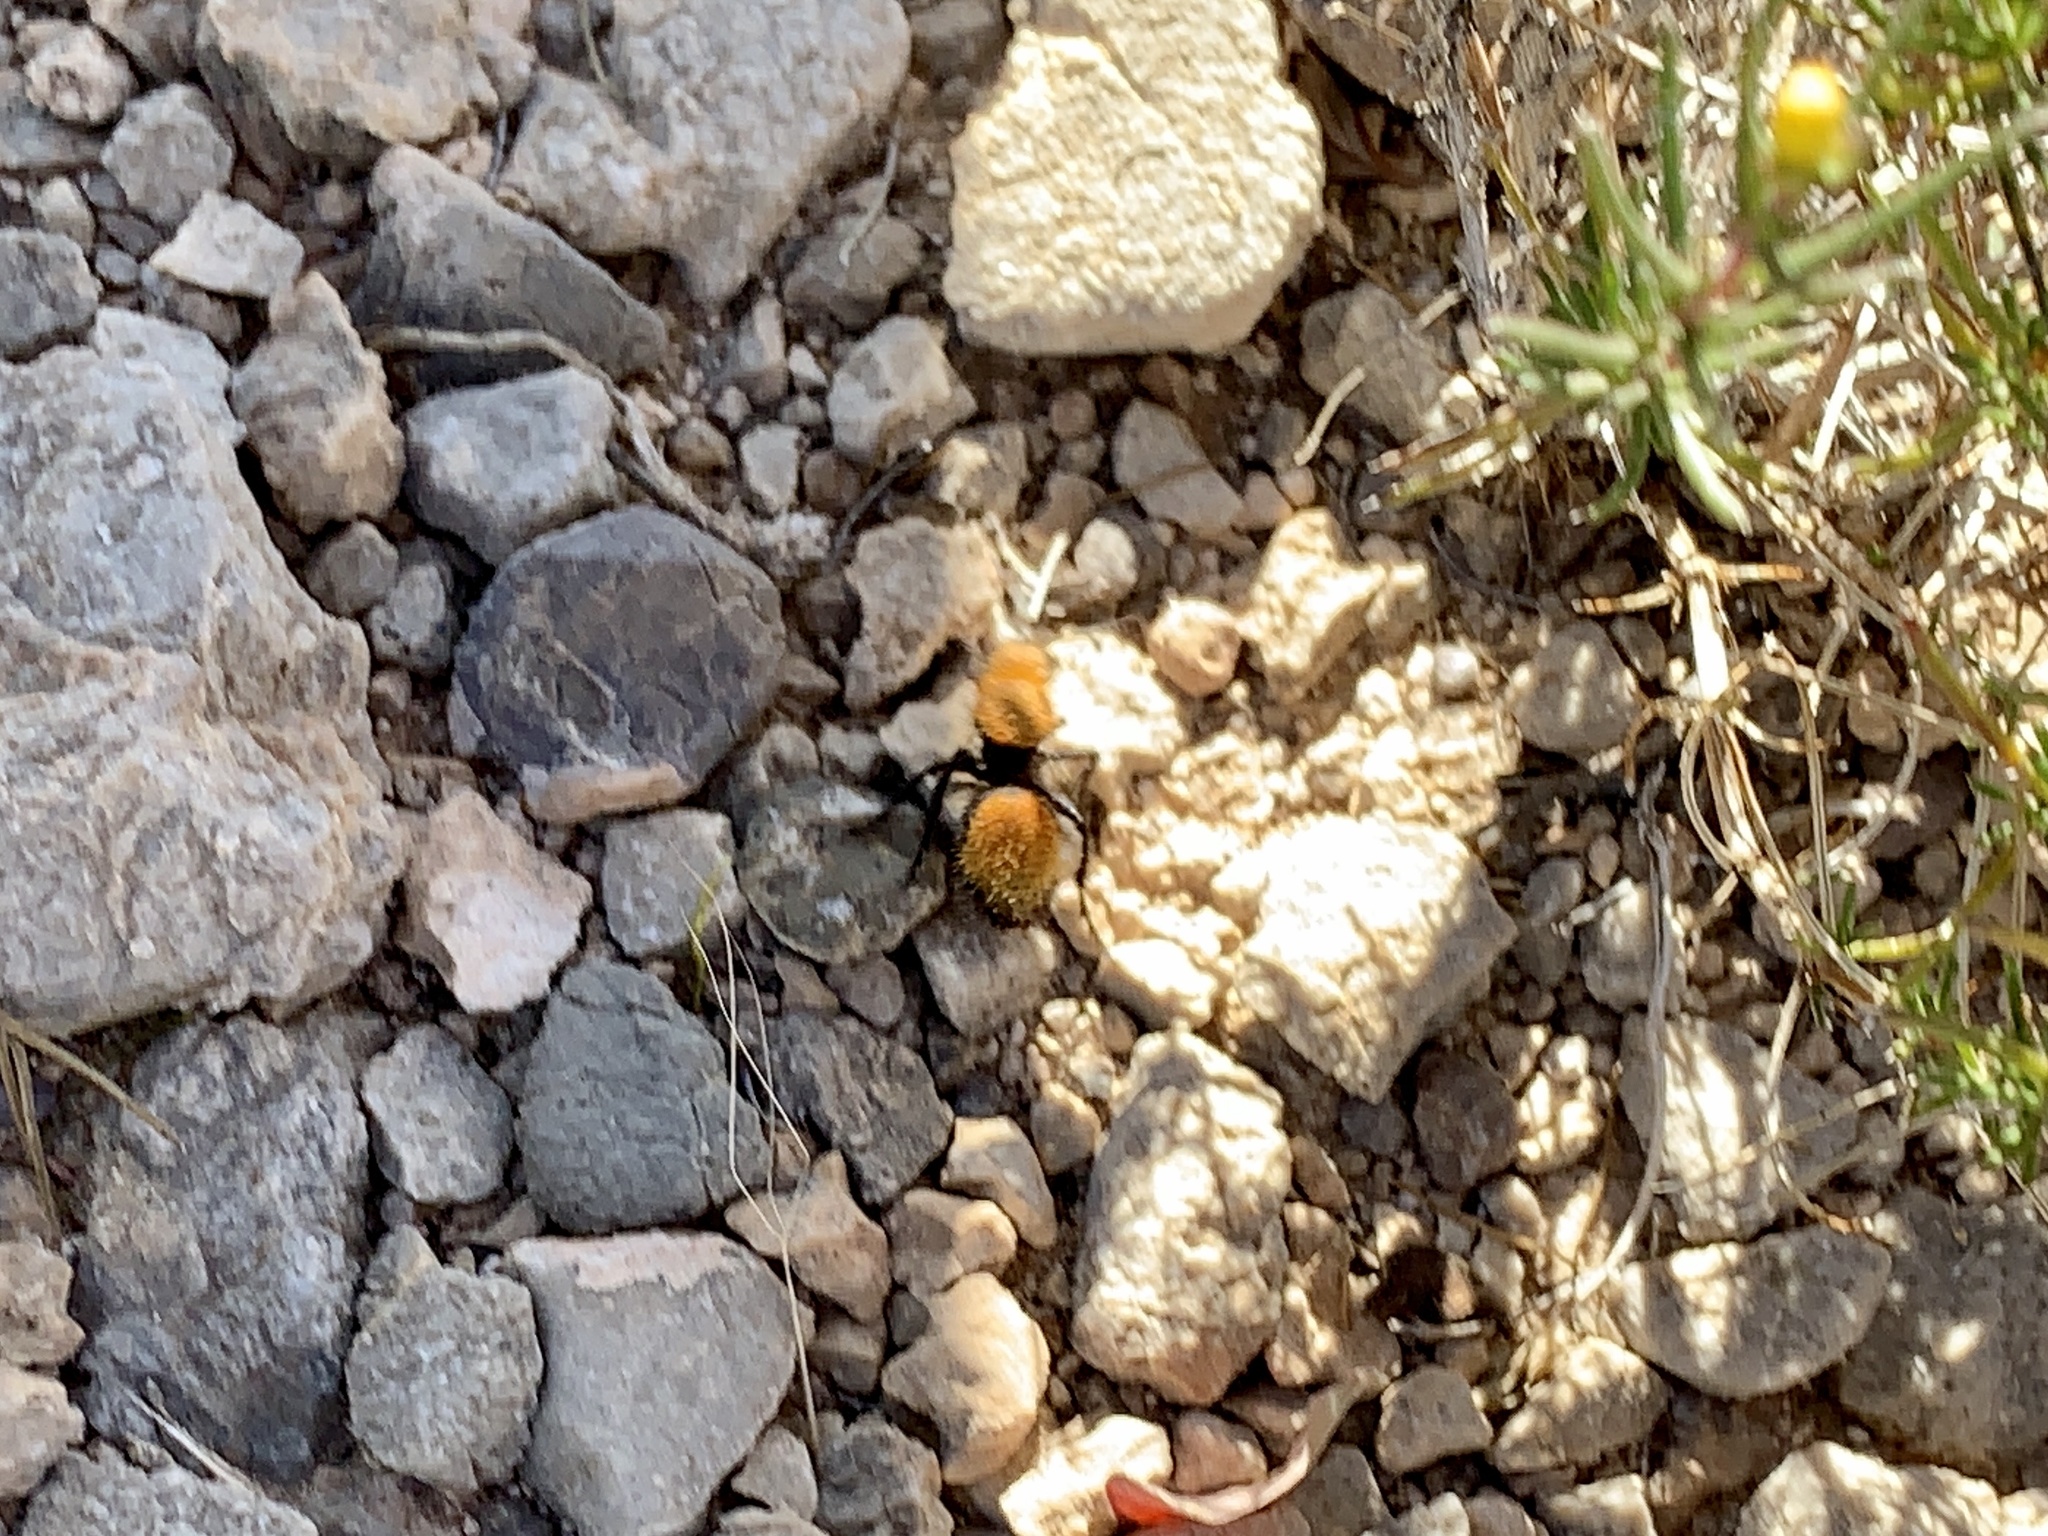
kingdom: Animalia
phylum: Arthropoda
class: Insecta
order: Hymenoptera
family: Mutillidae
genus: Dasymutilla
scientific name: Dasymutilla vestita
